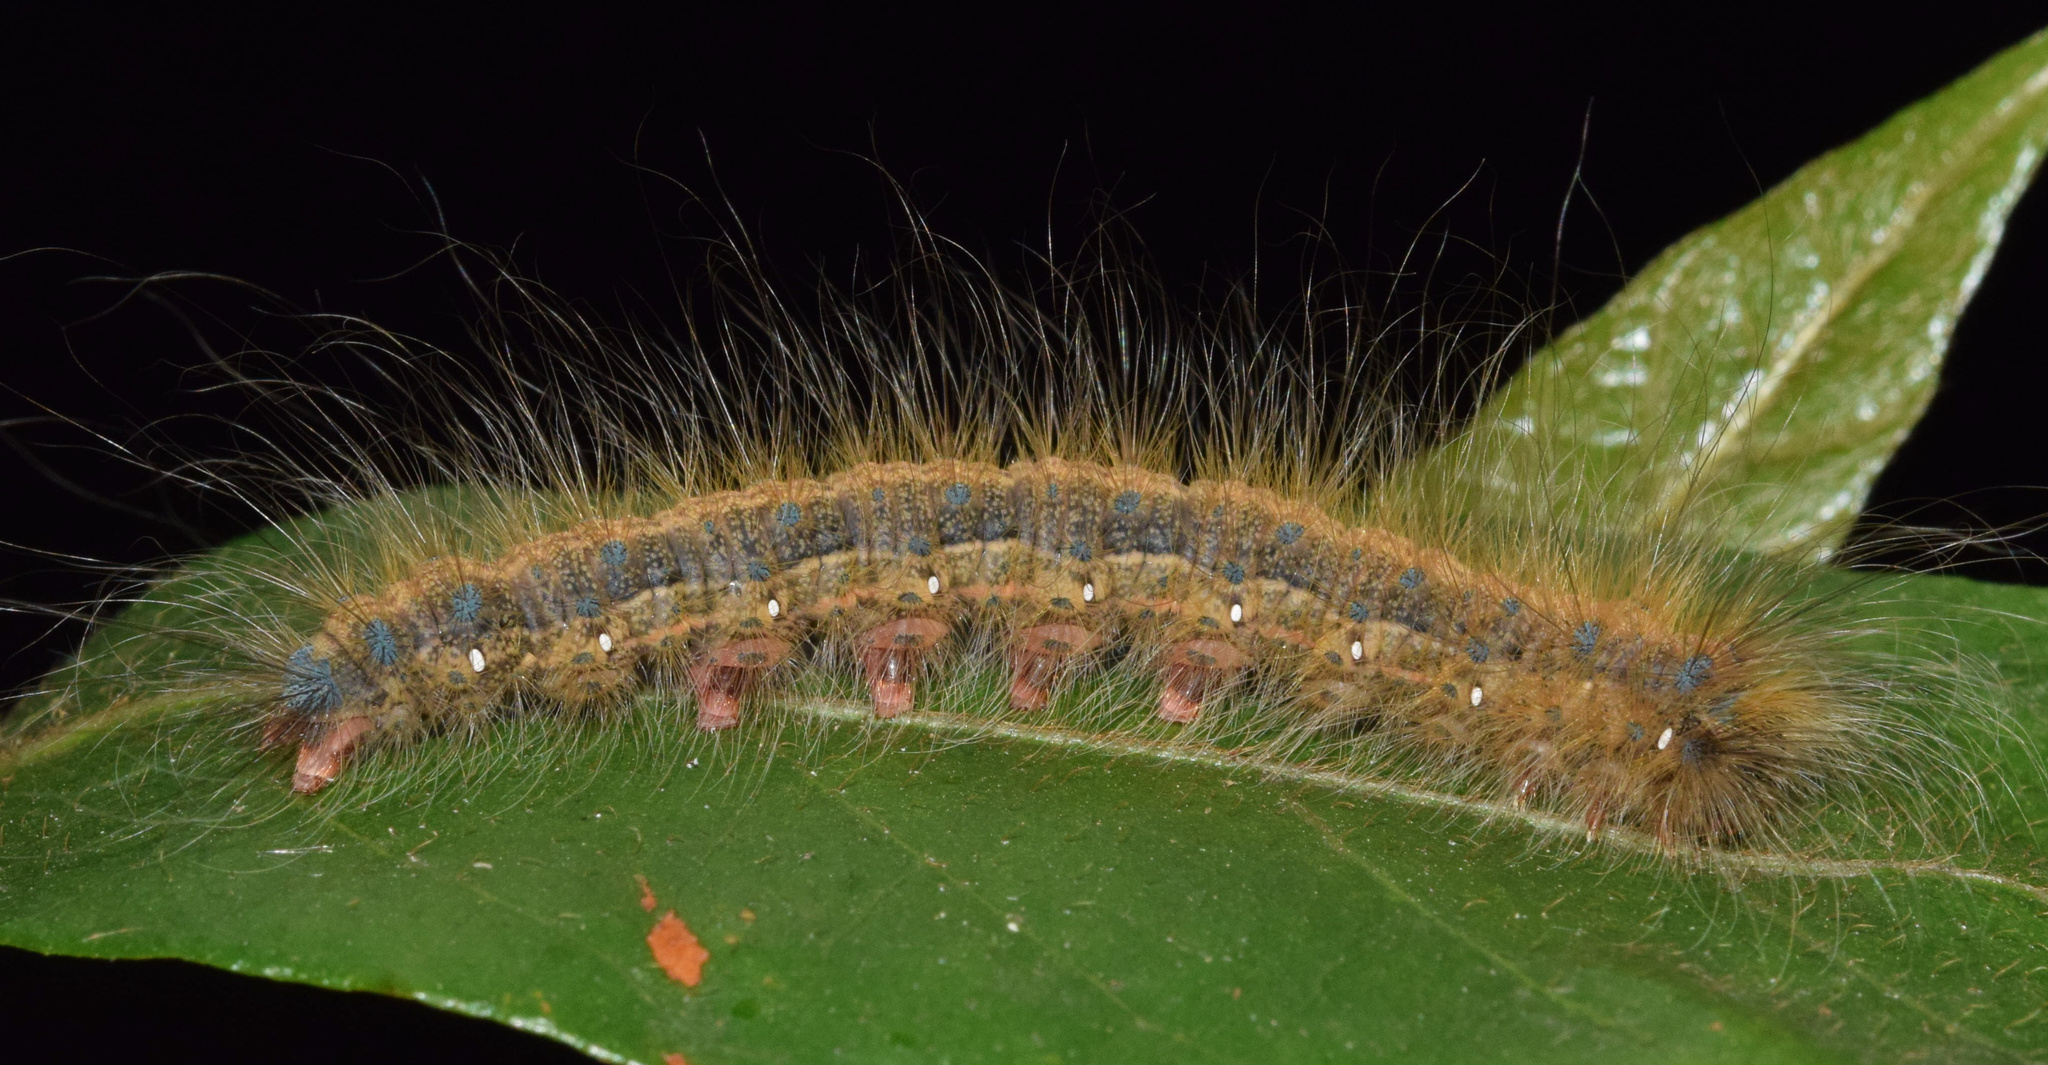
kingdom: Animalia
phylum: Arthropoda
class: Insecta
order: Lepidoptera
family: Eupterotidae
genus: Jana
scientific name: Jana eurymas
